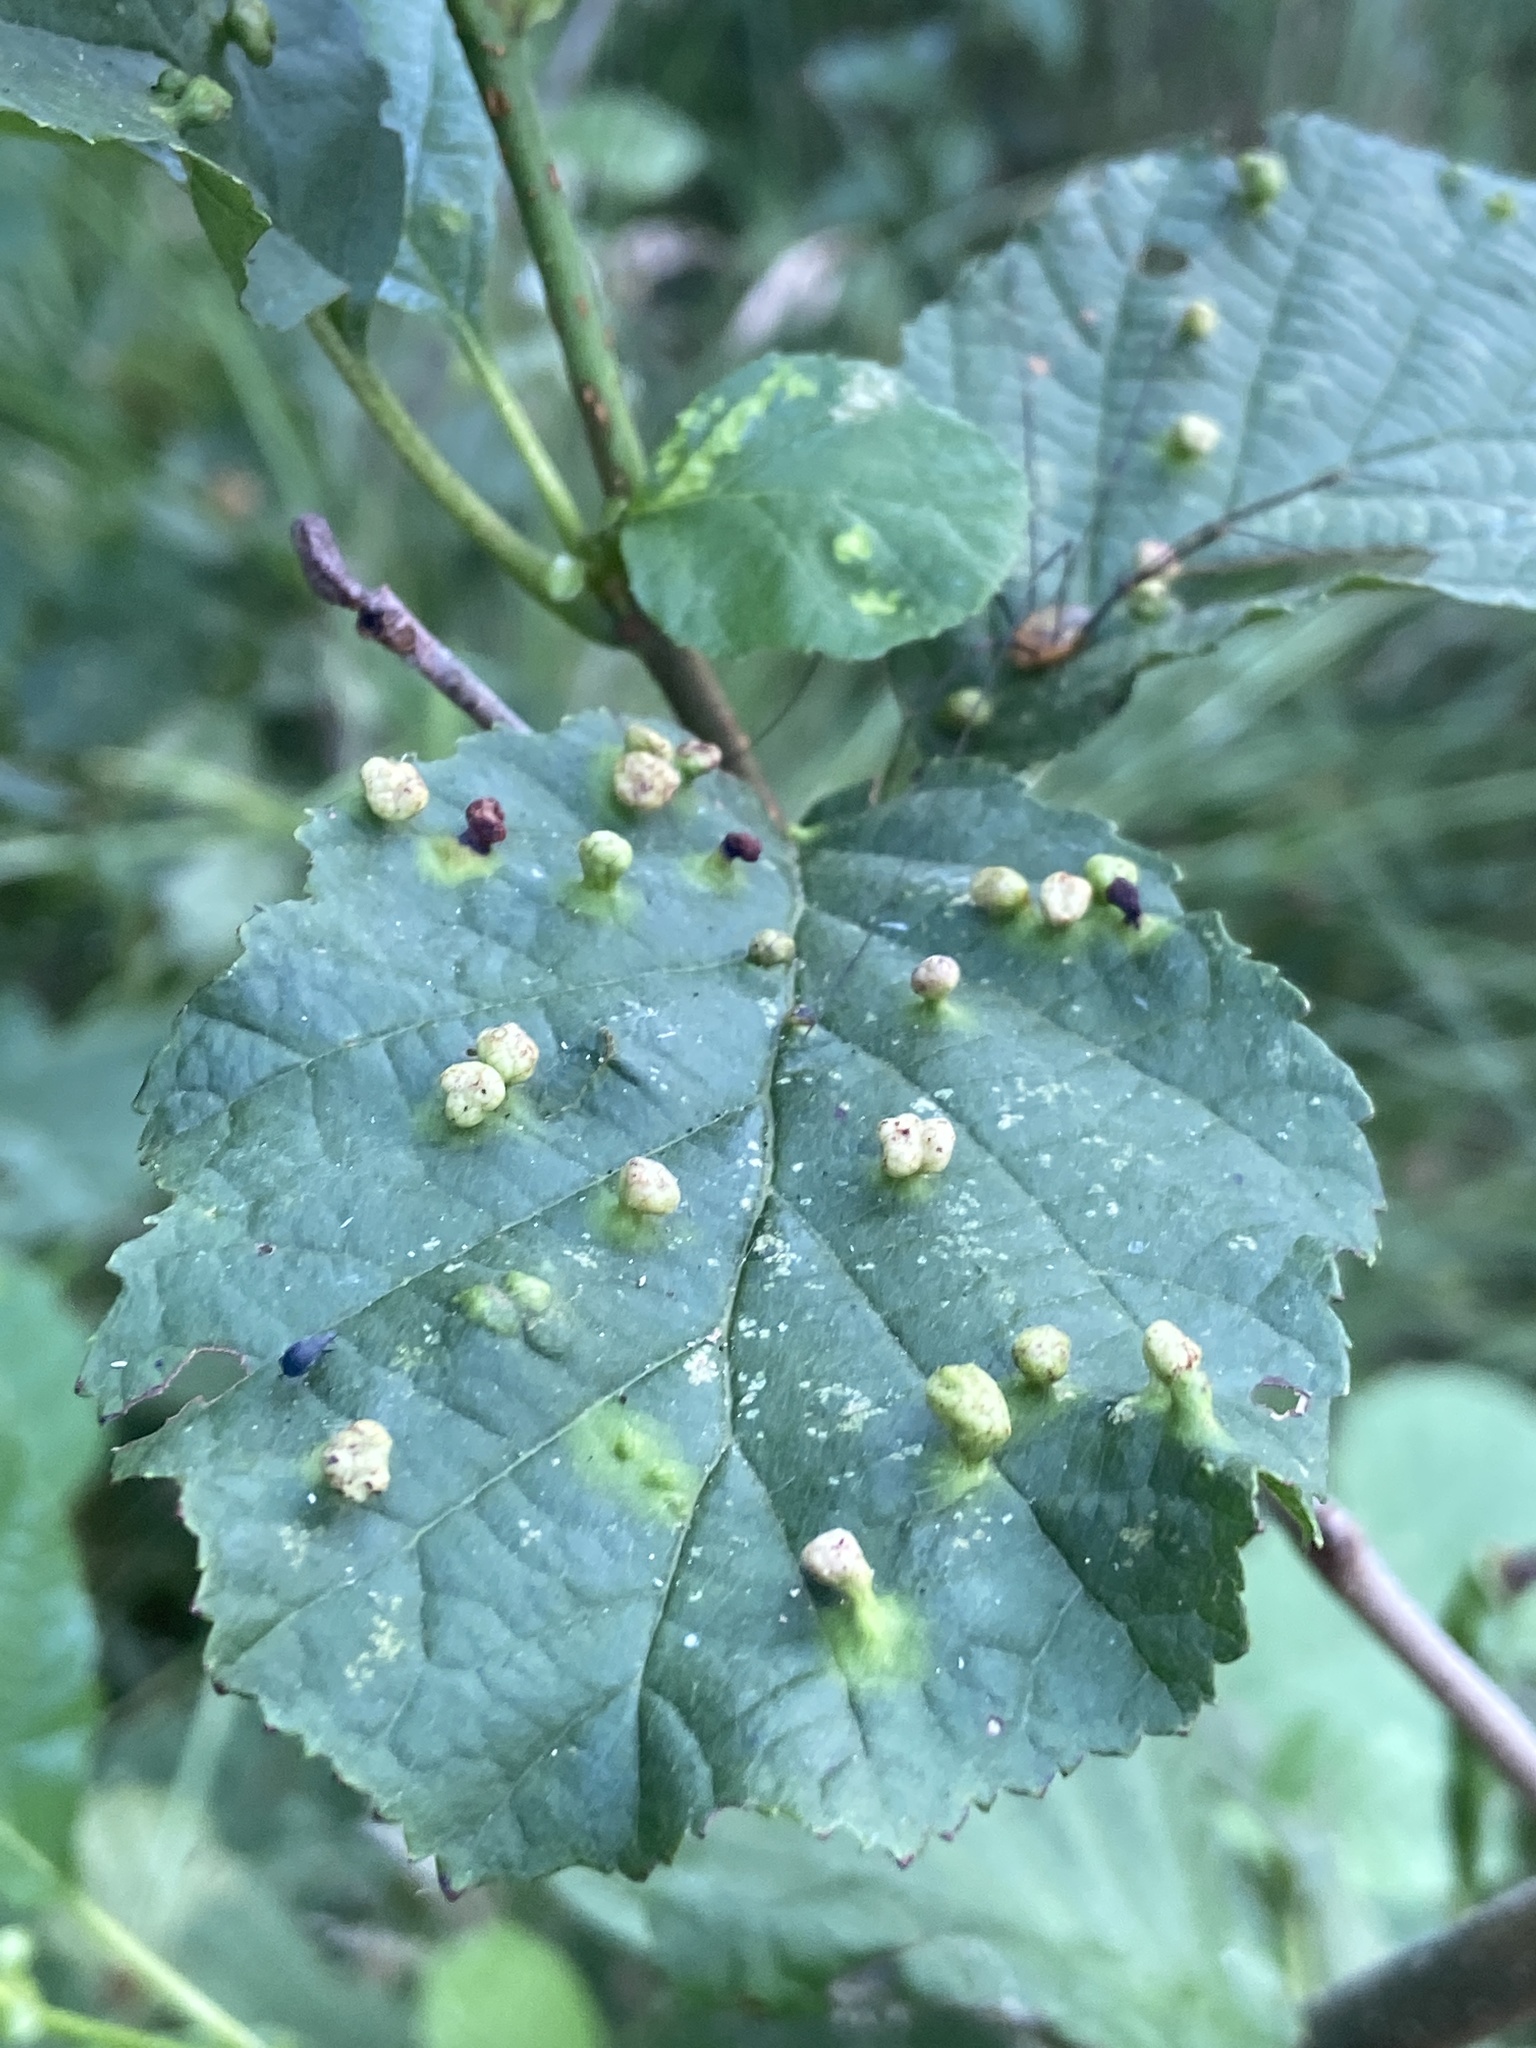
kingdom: Animalia
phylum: Arthropoda
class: Arachnida
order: Trombidiformes
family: Eriophyidae
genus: Eriophyes
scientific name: Eriophyes laevis
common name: Alder leaf gall mite
